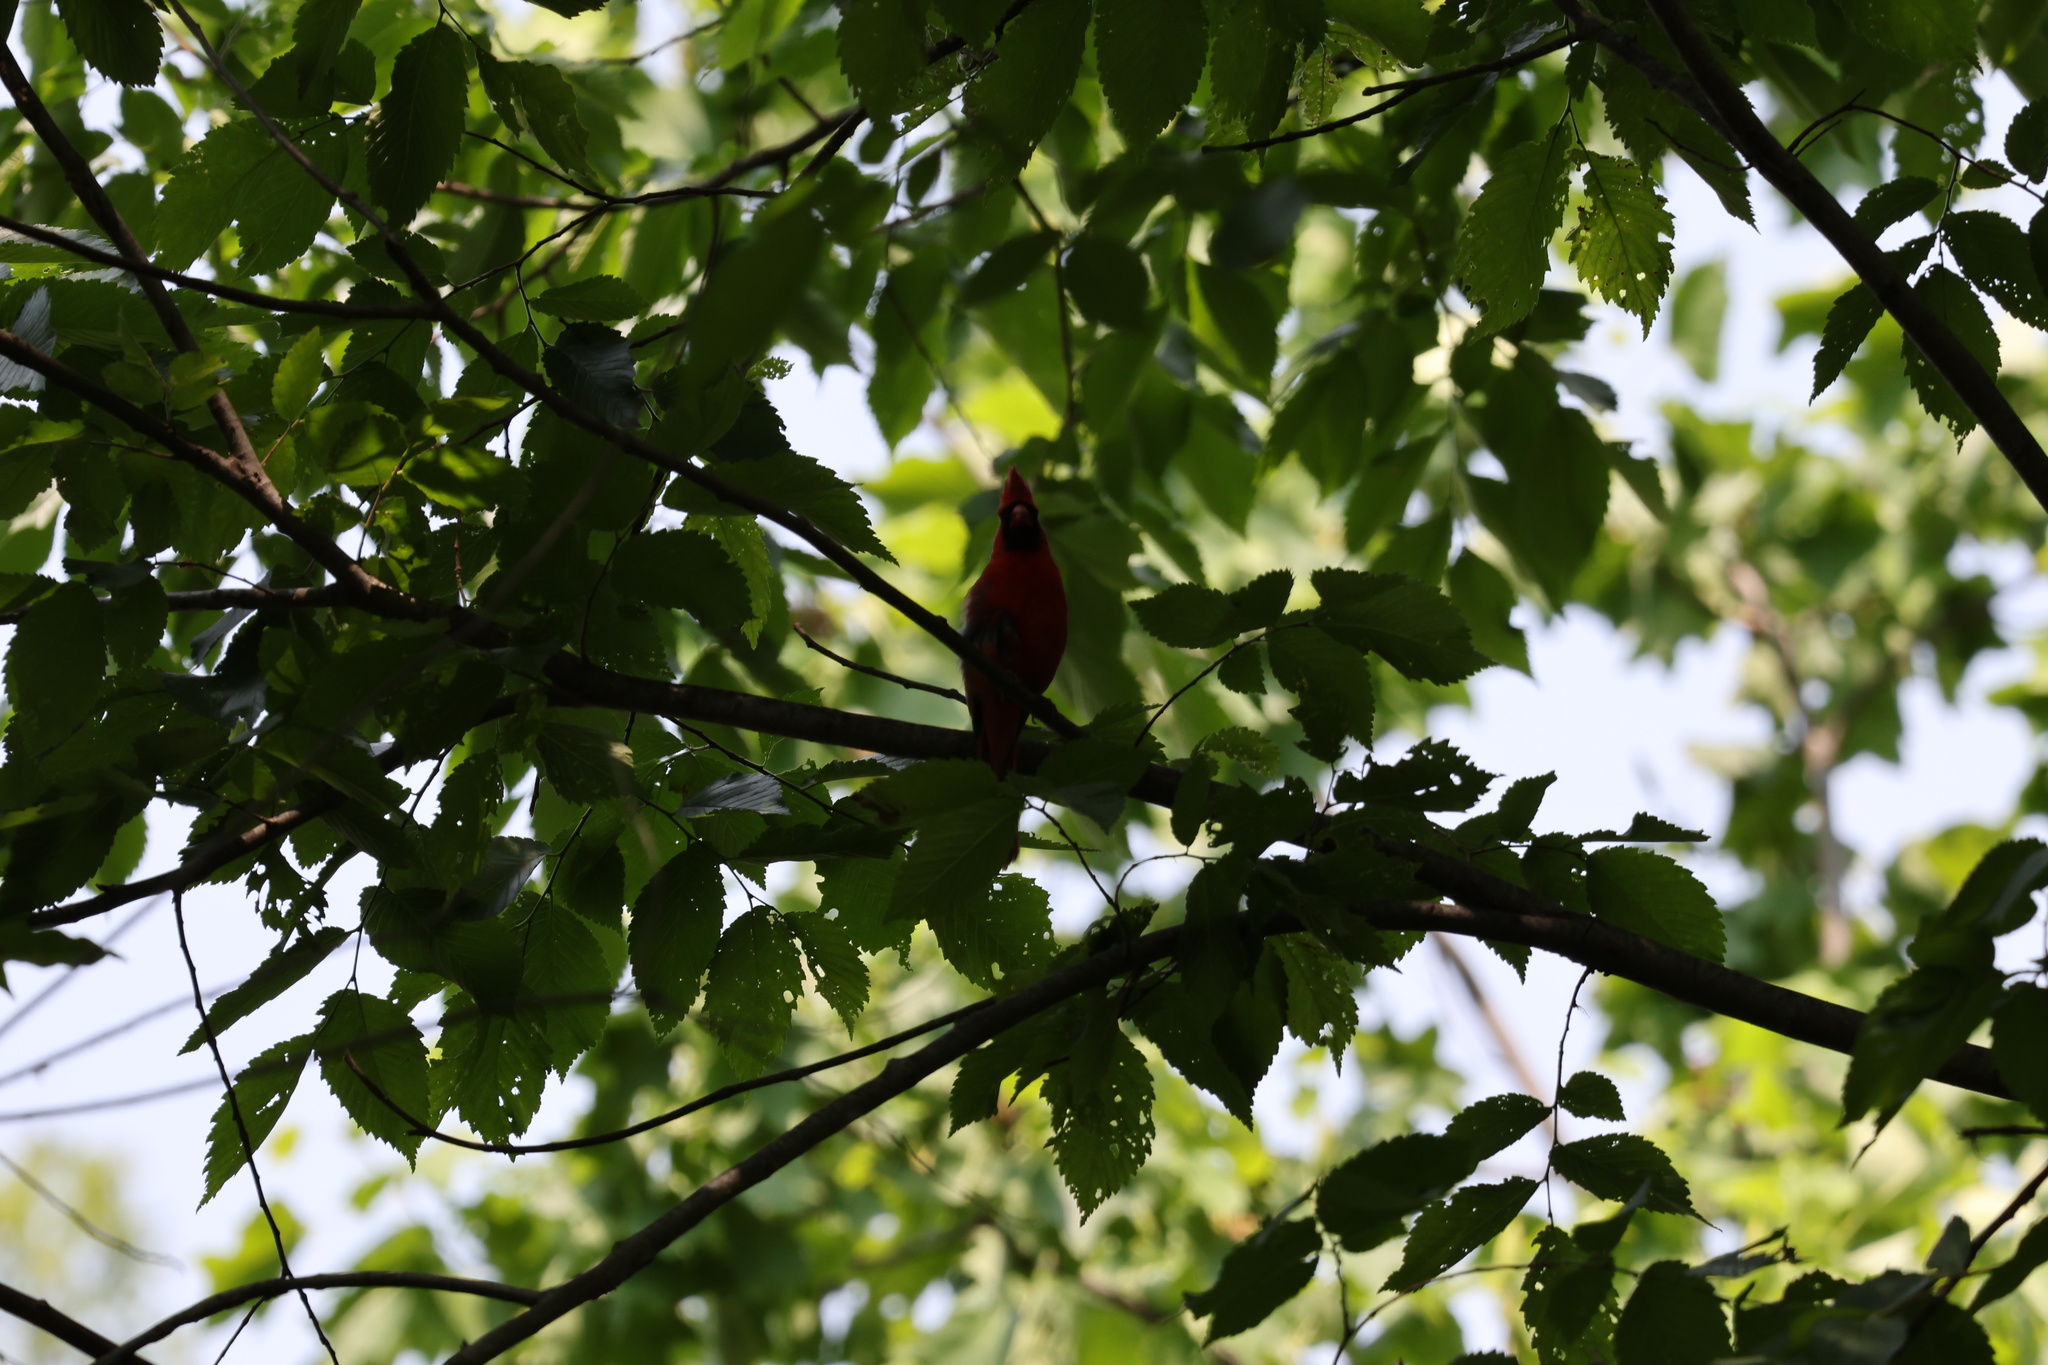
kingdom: Animalia
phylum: Chordata
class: Aves
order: Passeriformes
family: Cardinalidae
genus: Cardinalis
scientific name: Cardinalis cardinalis
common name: Northern cardinal
